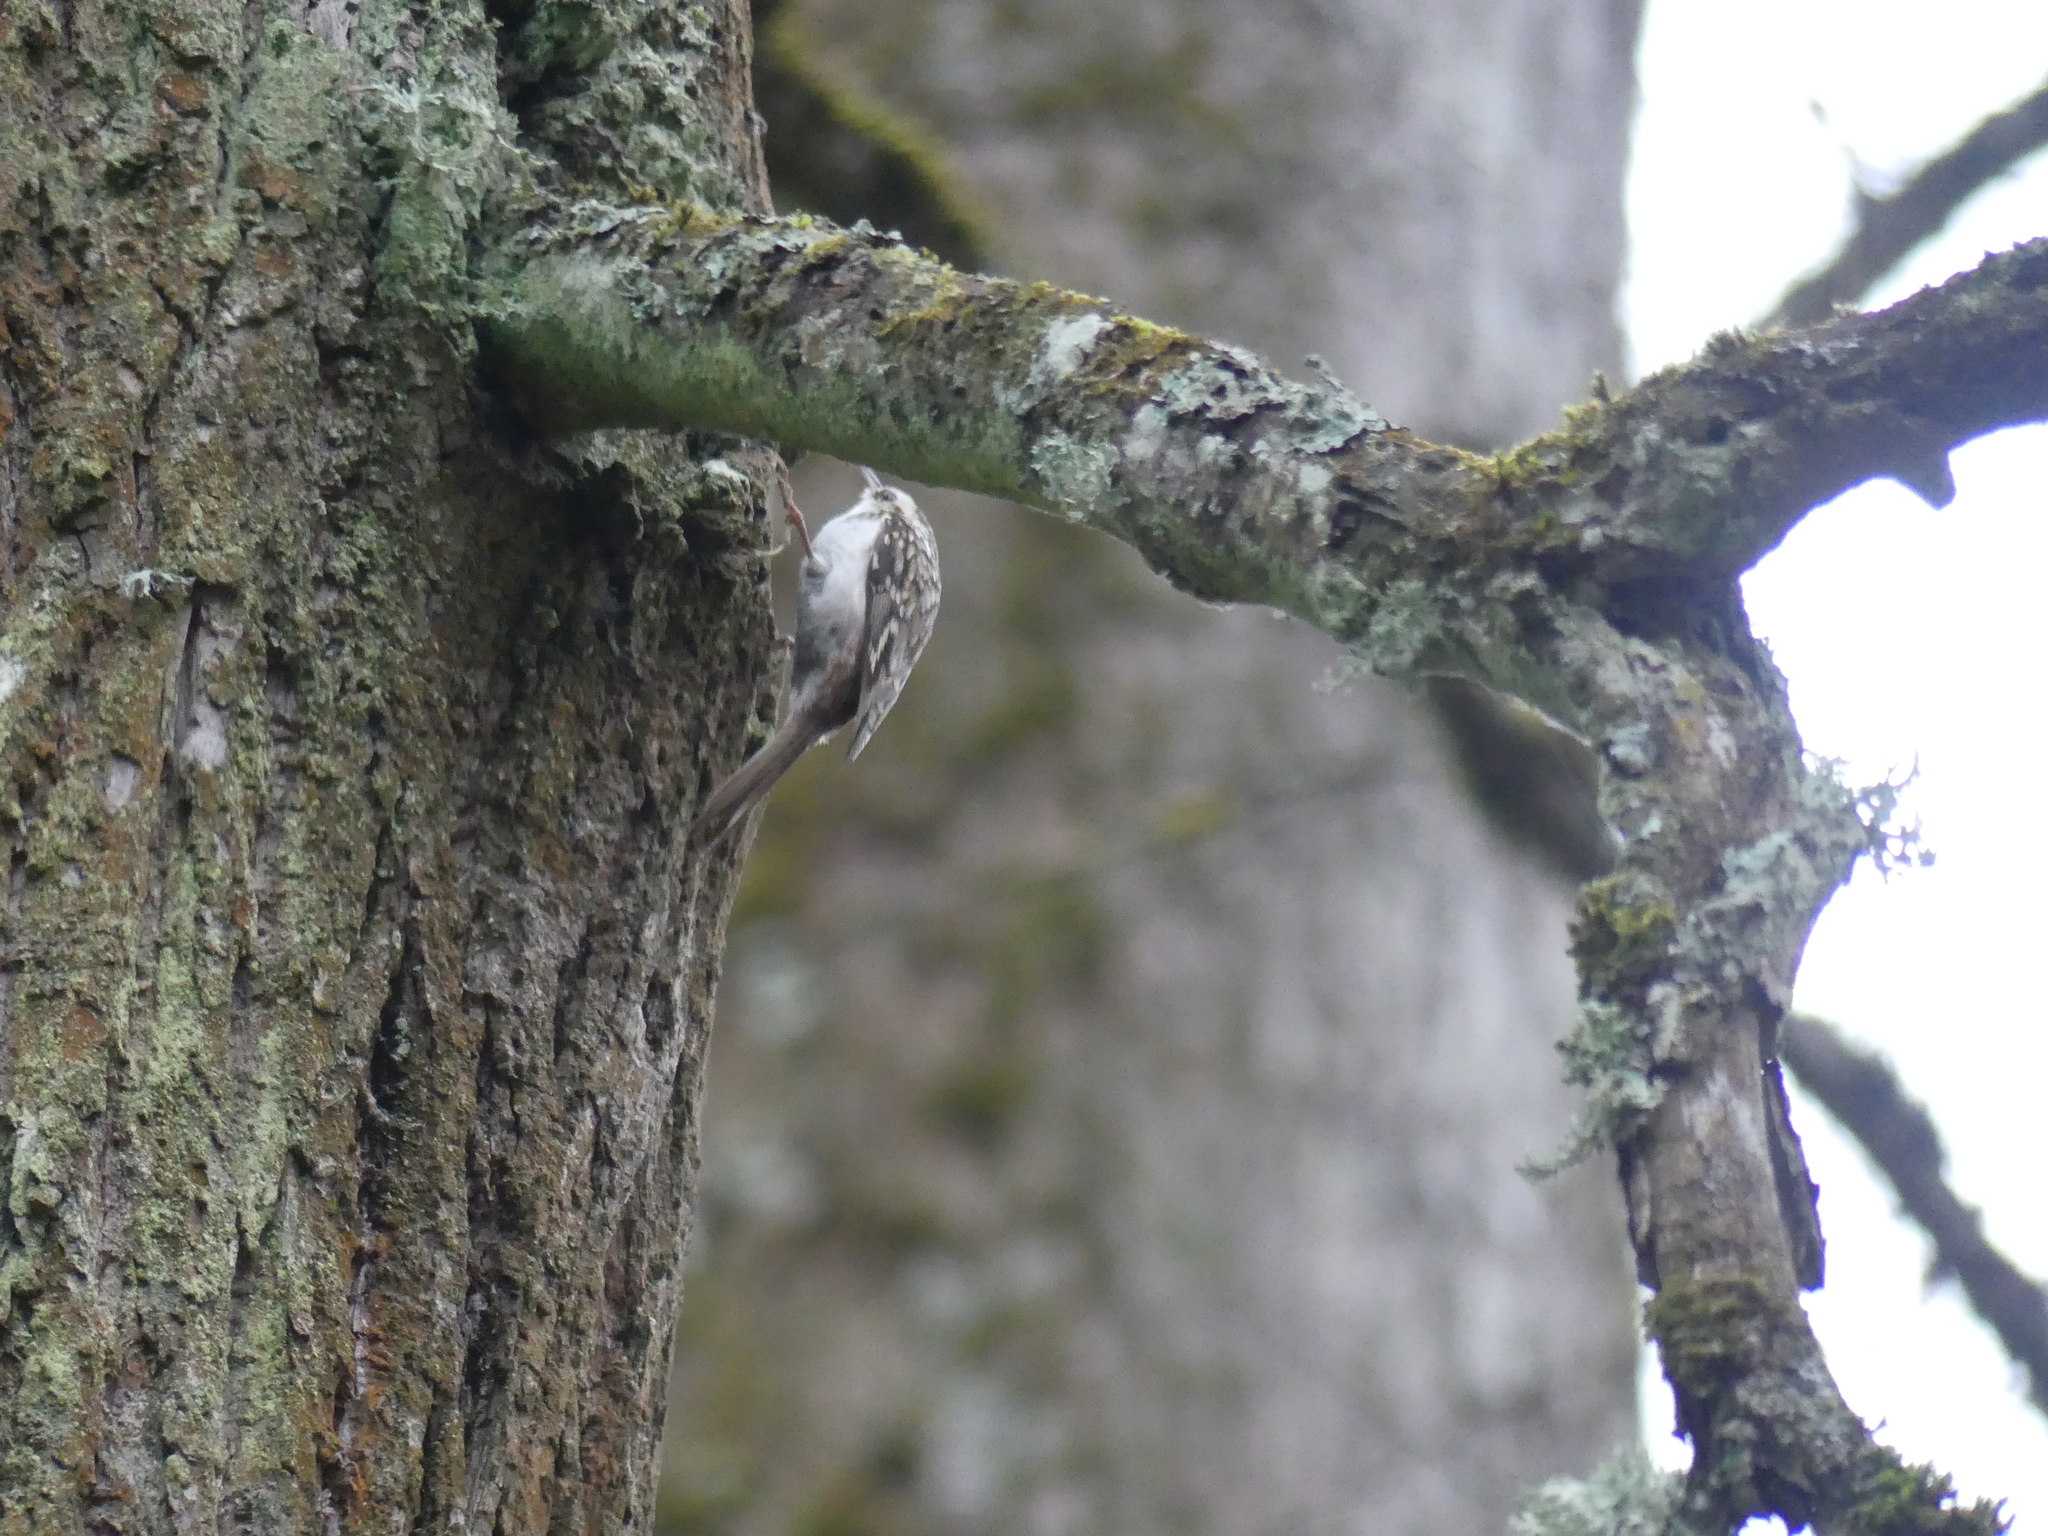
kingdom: Animalia
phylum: Chordata
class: Aves
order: Passeriformes
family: Certhiidae
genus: Certhia
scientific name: Certhia familiaris
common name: Eurasian treecreeper
